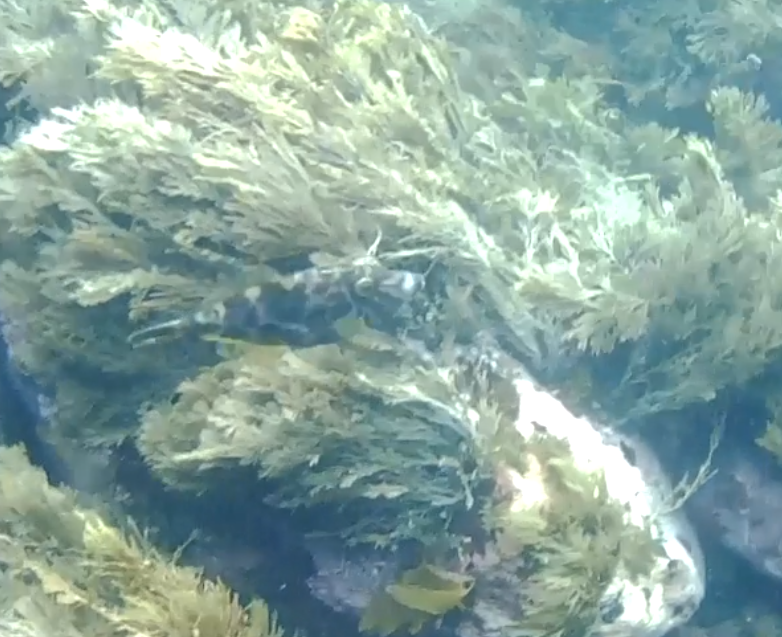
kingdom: Animalia
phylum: Chordata
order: Tetraodontiformes
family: Monacanthidae
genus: Meuschenia
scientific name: Meuschenia scaber
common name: Cosmopolitan leatherjacket
